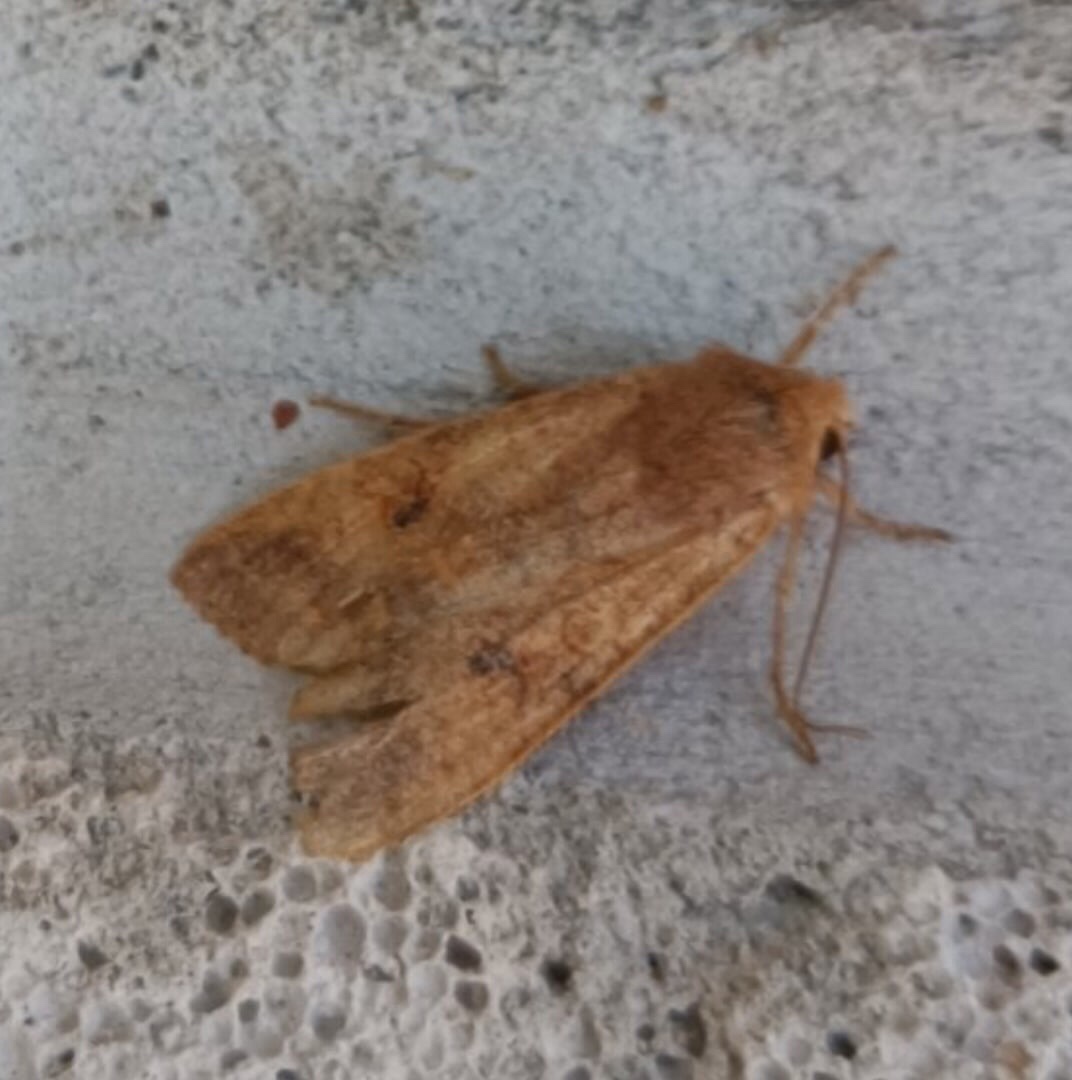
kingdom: Animalia
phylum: Arthropoda
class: Insecta
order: Lepidoptera
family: Noctuidae
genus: Sunira
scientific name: Sunira circellaris
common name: Brick
